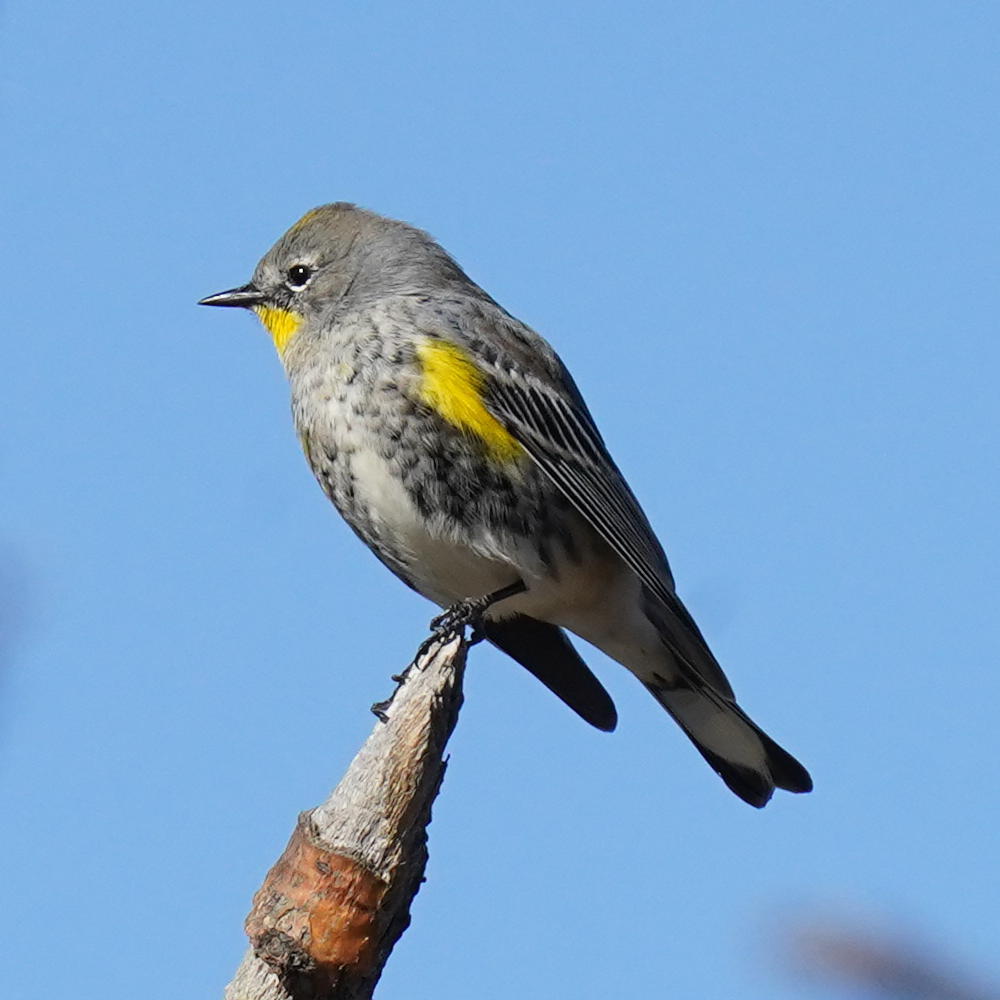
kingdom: Animalia
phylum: Chordata
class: Aves
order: Passeriformes
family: Parulidae
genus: Setophaga
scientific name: Setophaga auduboni
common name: Audubon's warbler
